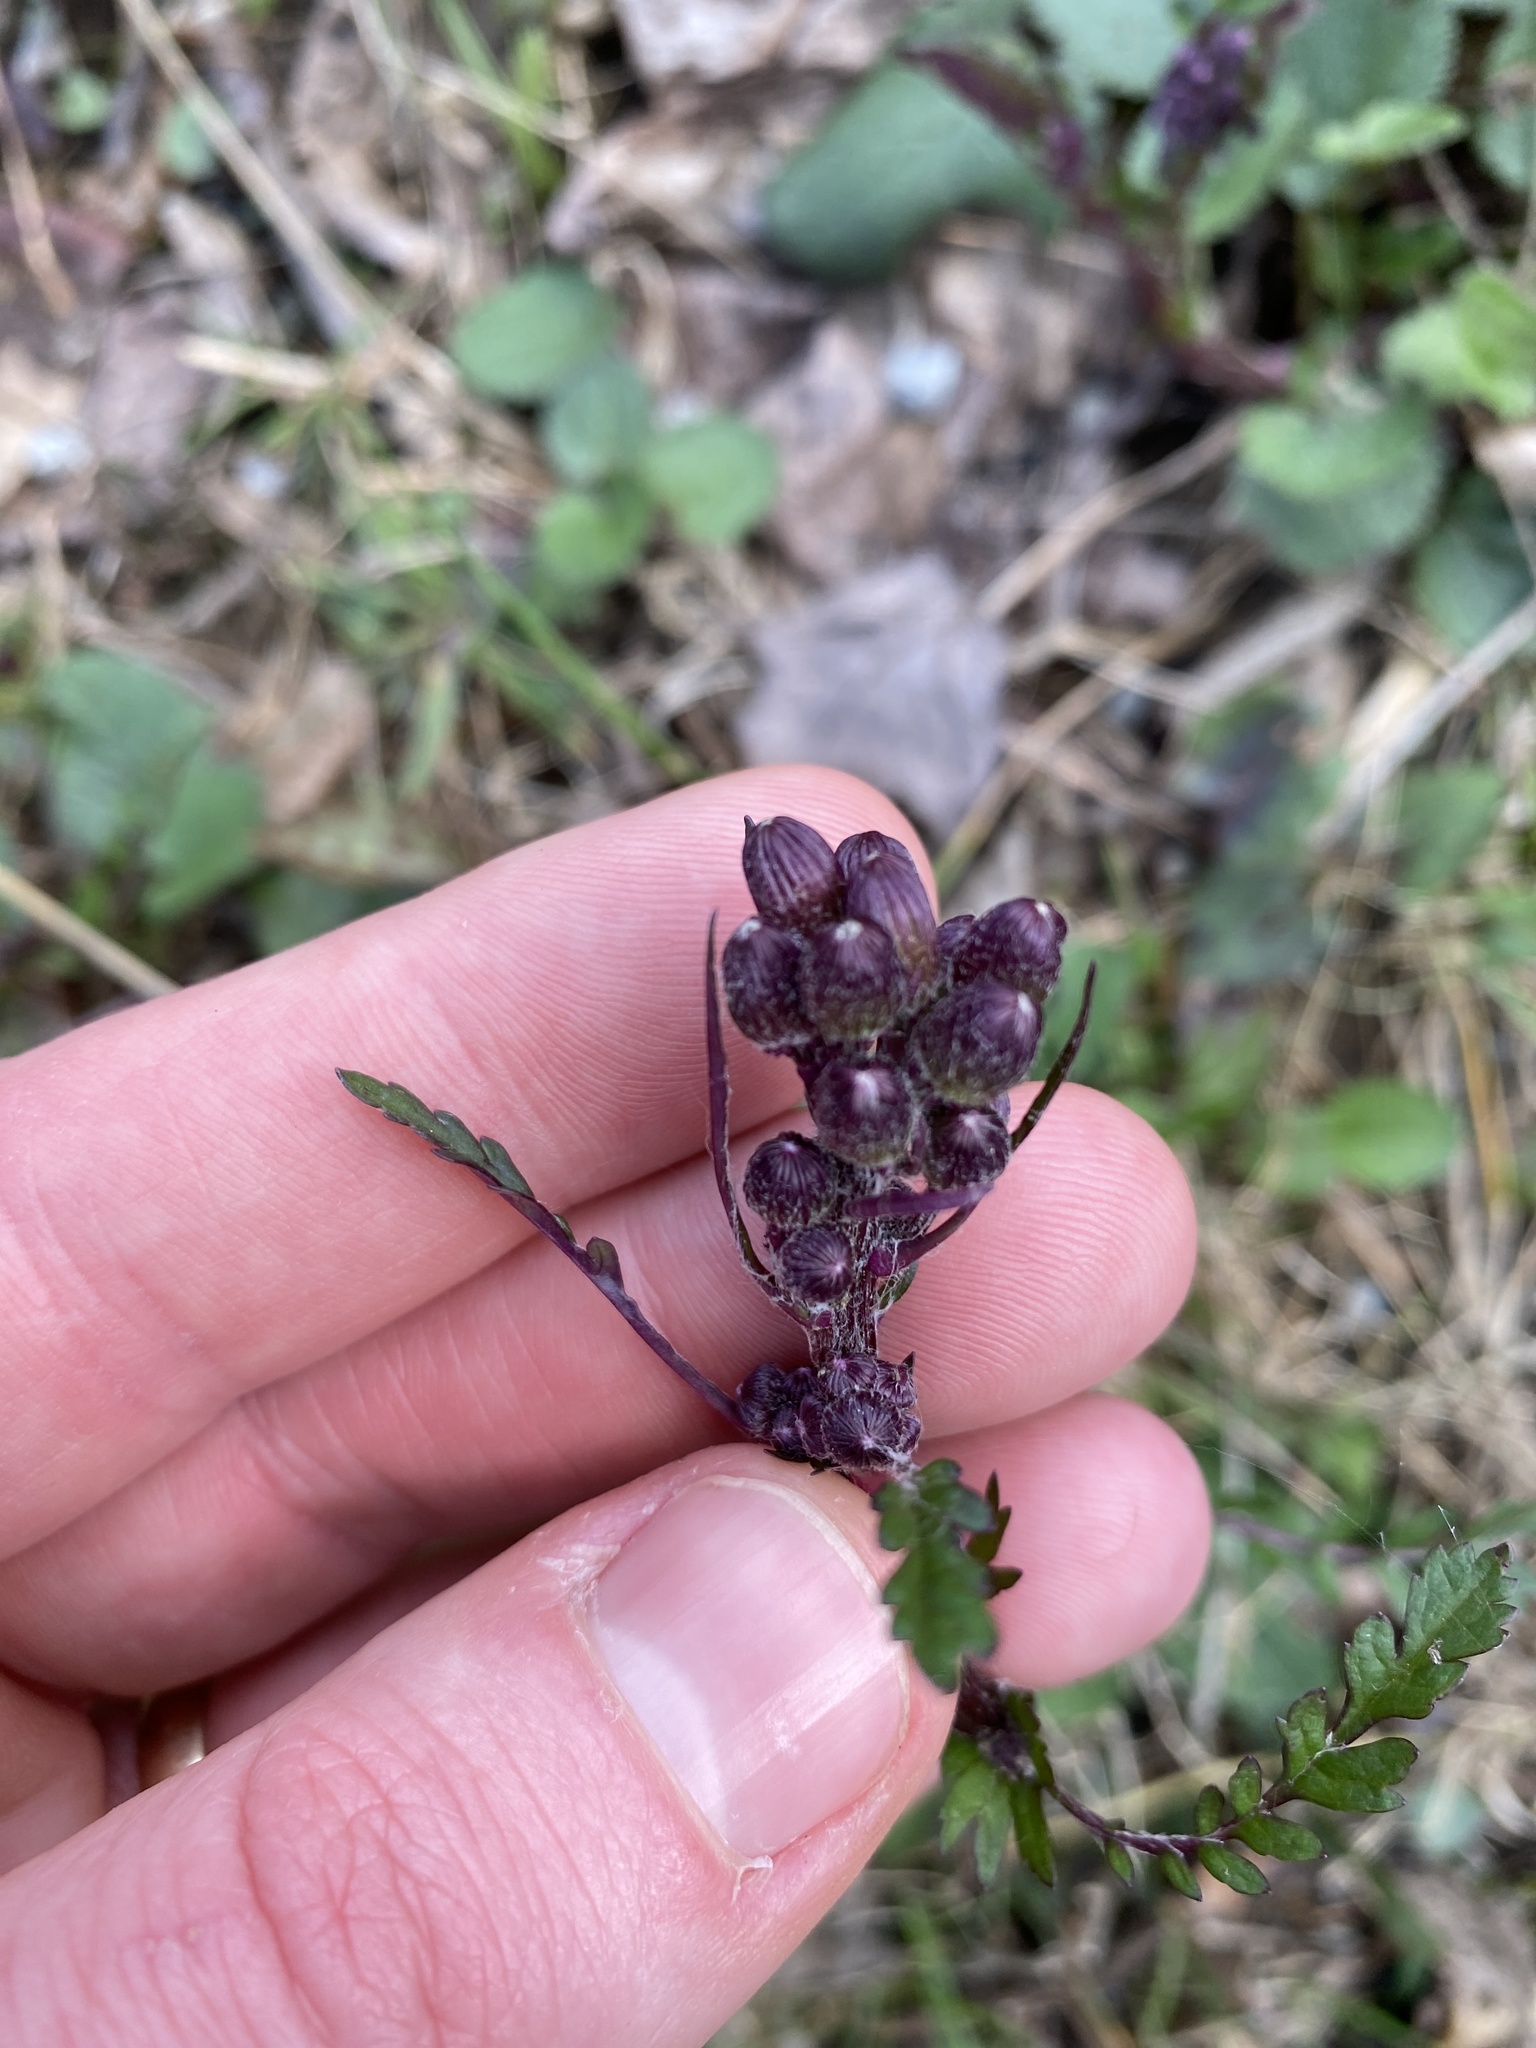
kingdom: Plantae
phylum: Tracheophyta
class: Magnoliopsida
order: Asterales
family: Asteraceae
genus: Packera
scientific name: Packera aurea
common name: Golden groundsel
